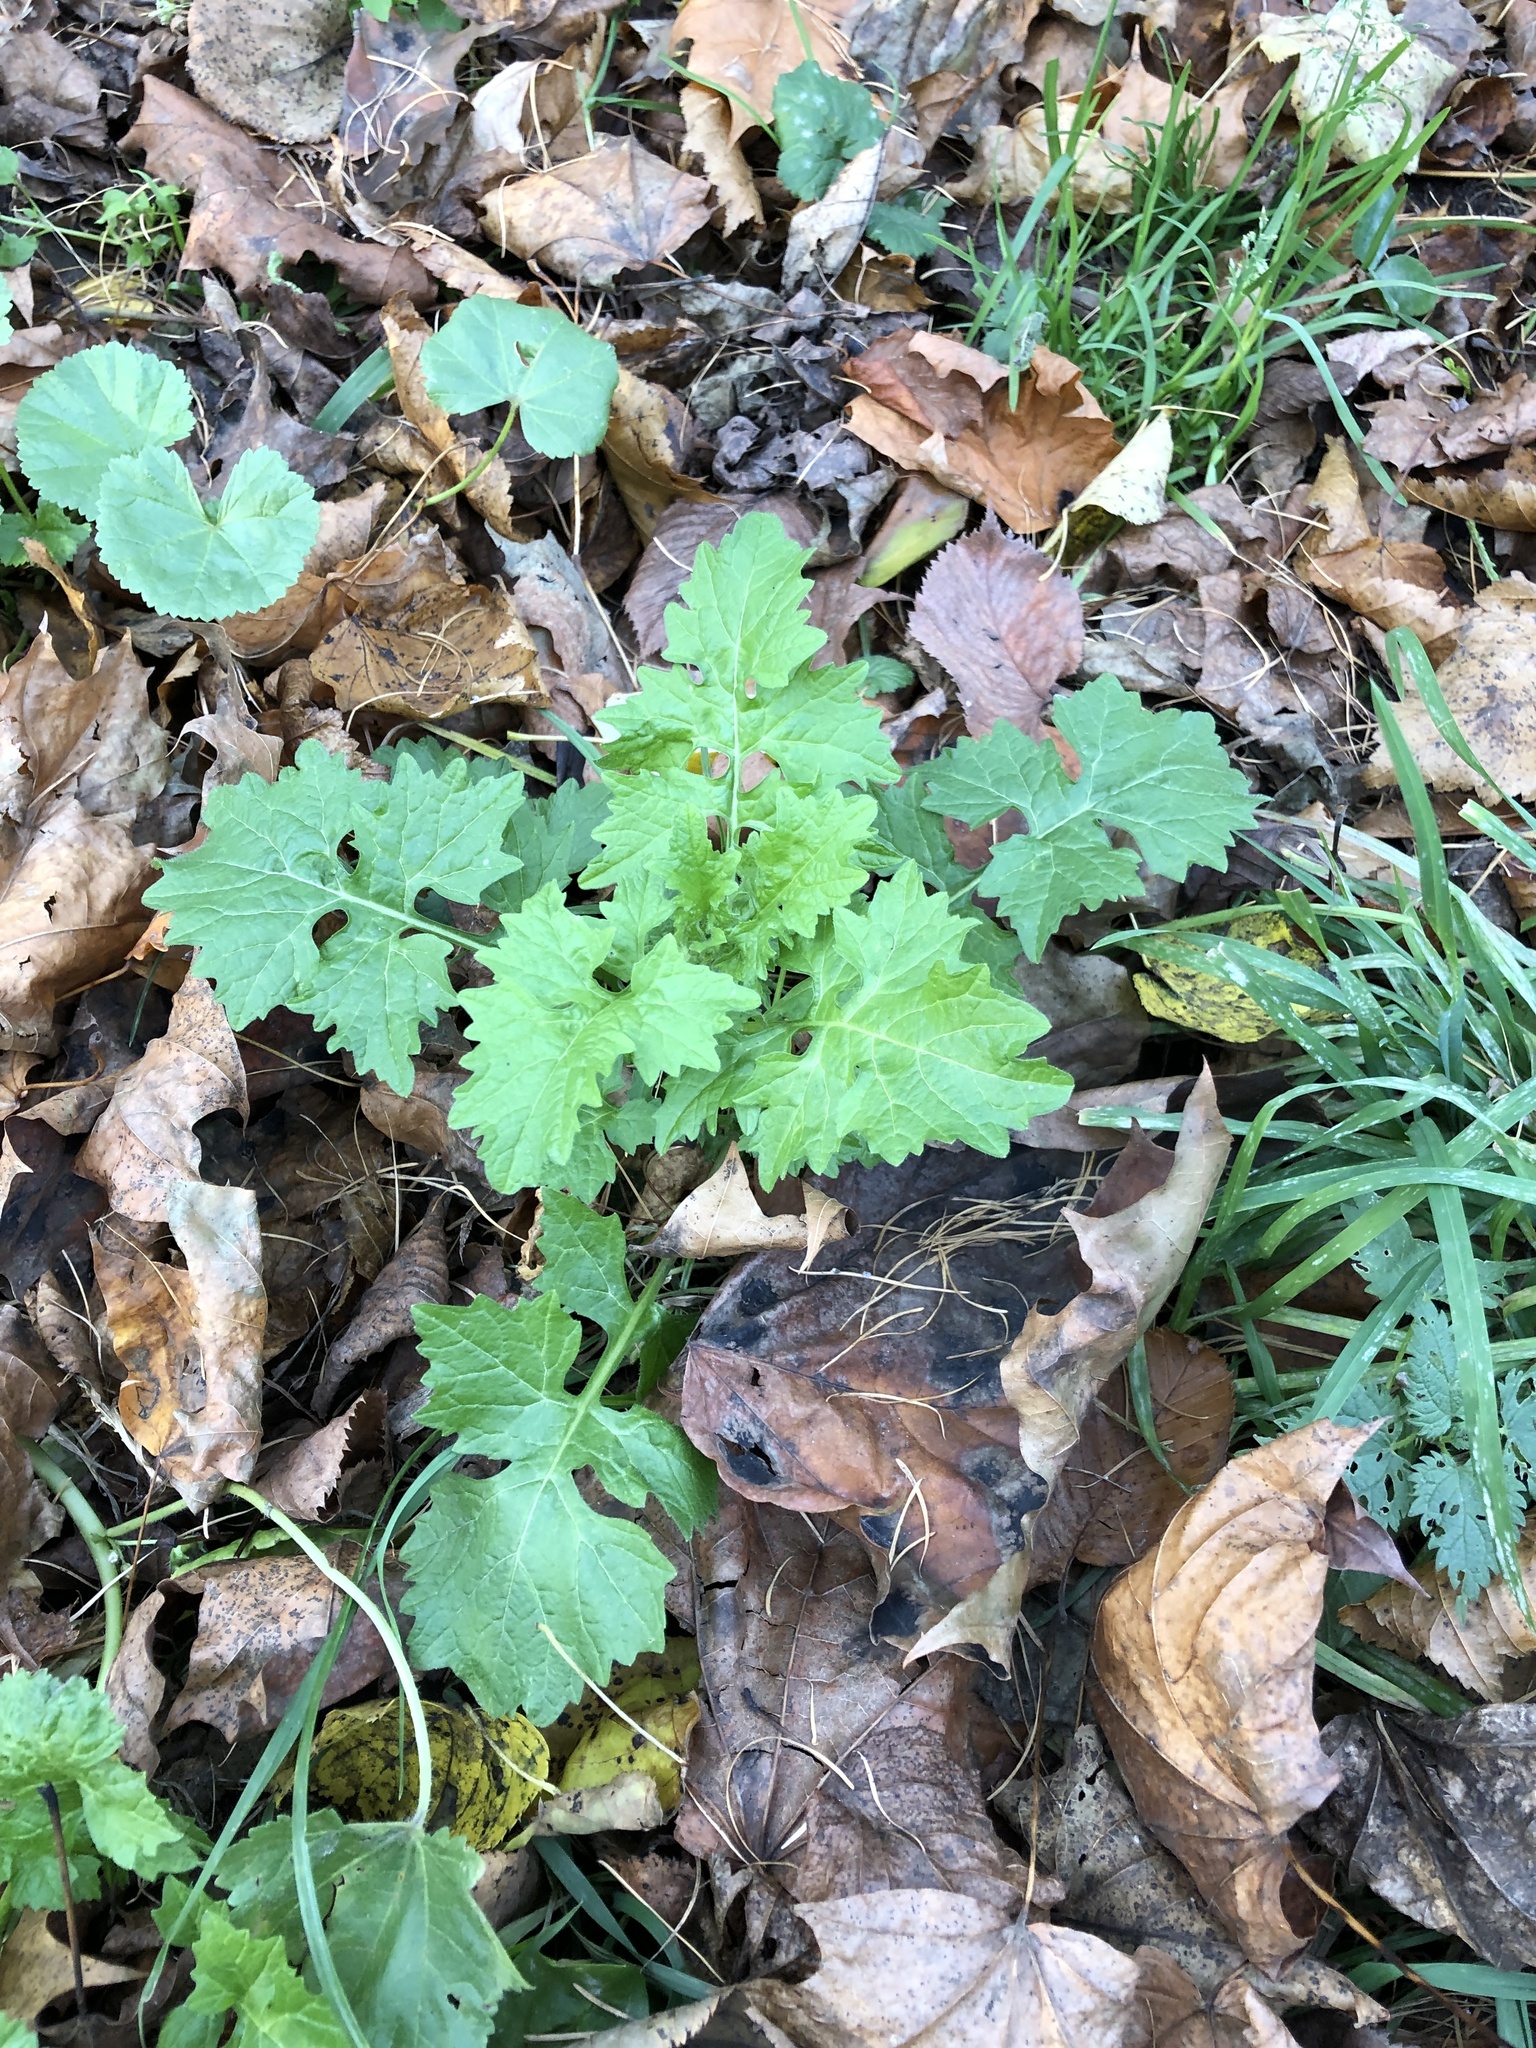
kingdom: Plantae
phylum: Tracheophyta
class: Magnoliopsida
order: Brassicales
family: Brassicaceae
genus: Sisymbrium
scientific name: Sisymbrium officinale
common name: Hedge mustard
